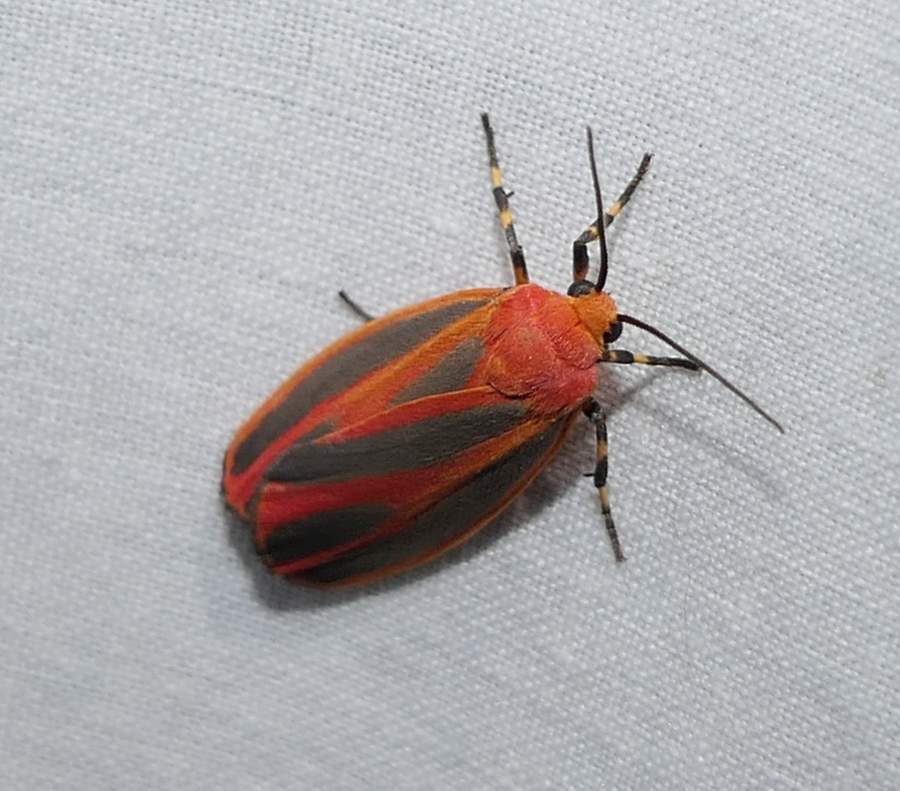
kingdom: Animalia
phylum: Arthropoda
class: Insecta
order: Lepidoptera
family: Erebidae
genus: Hypoprepia
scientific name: Hypoprepia fucosa
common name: Painted lichen moth
